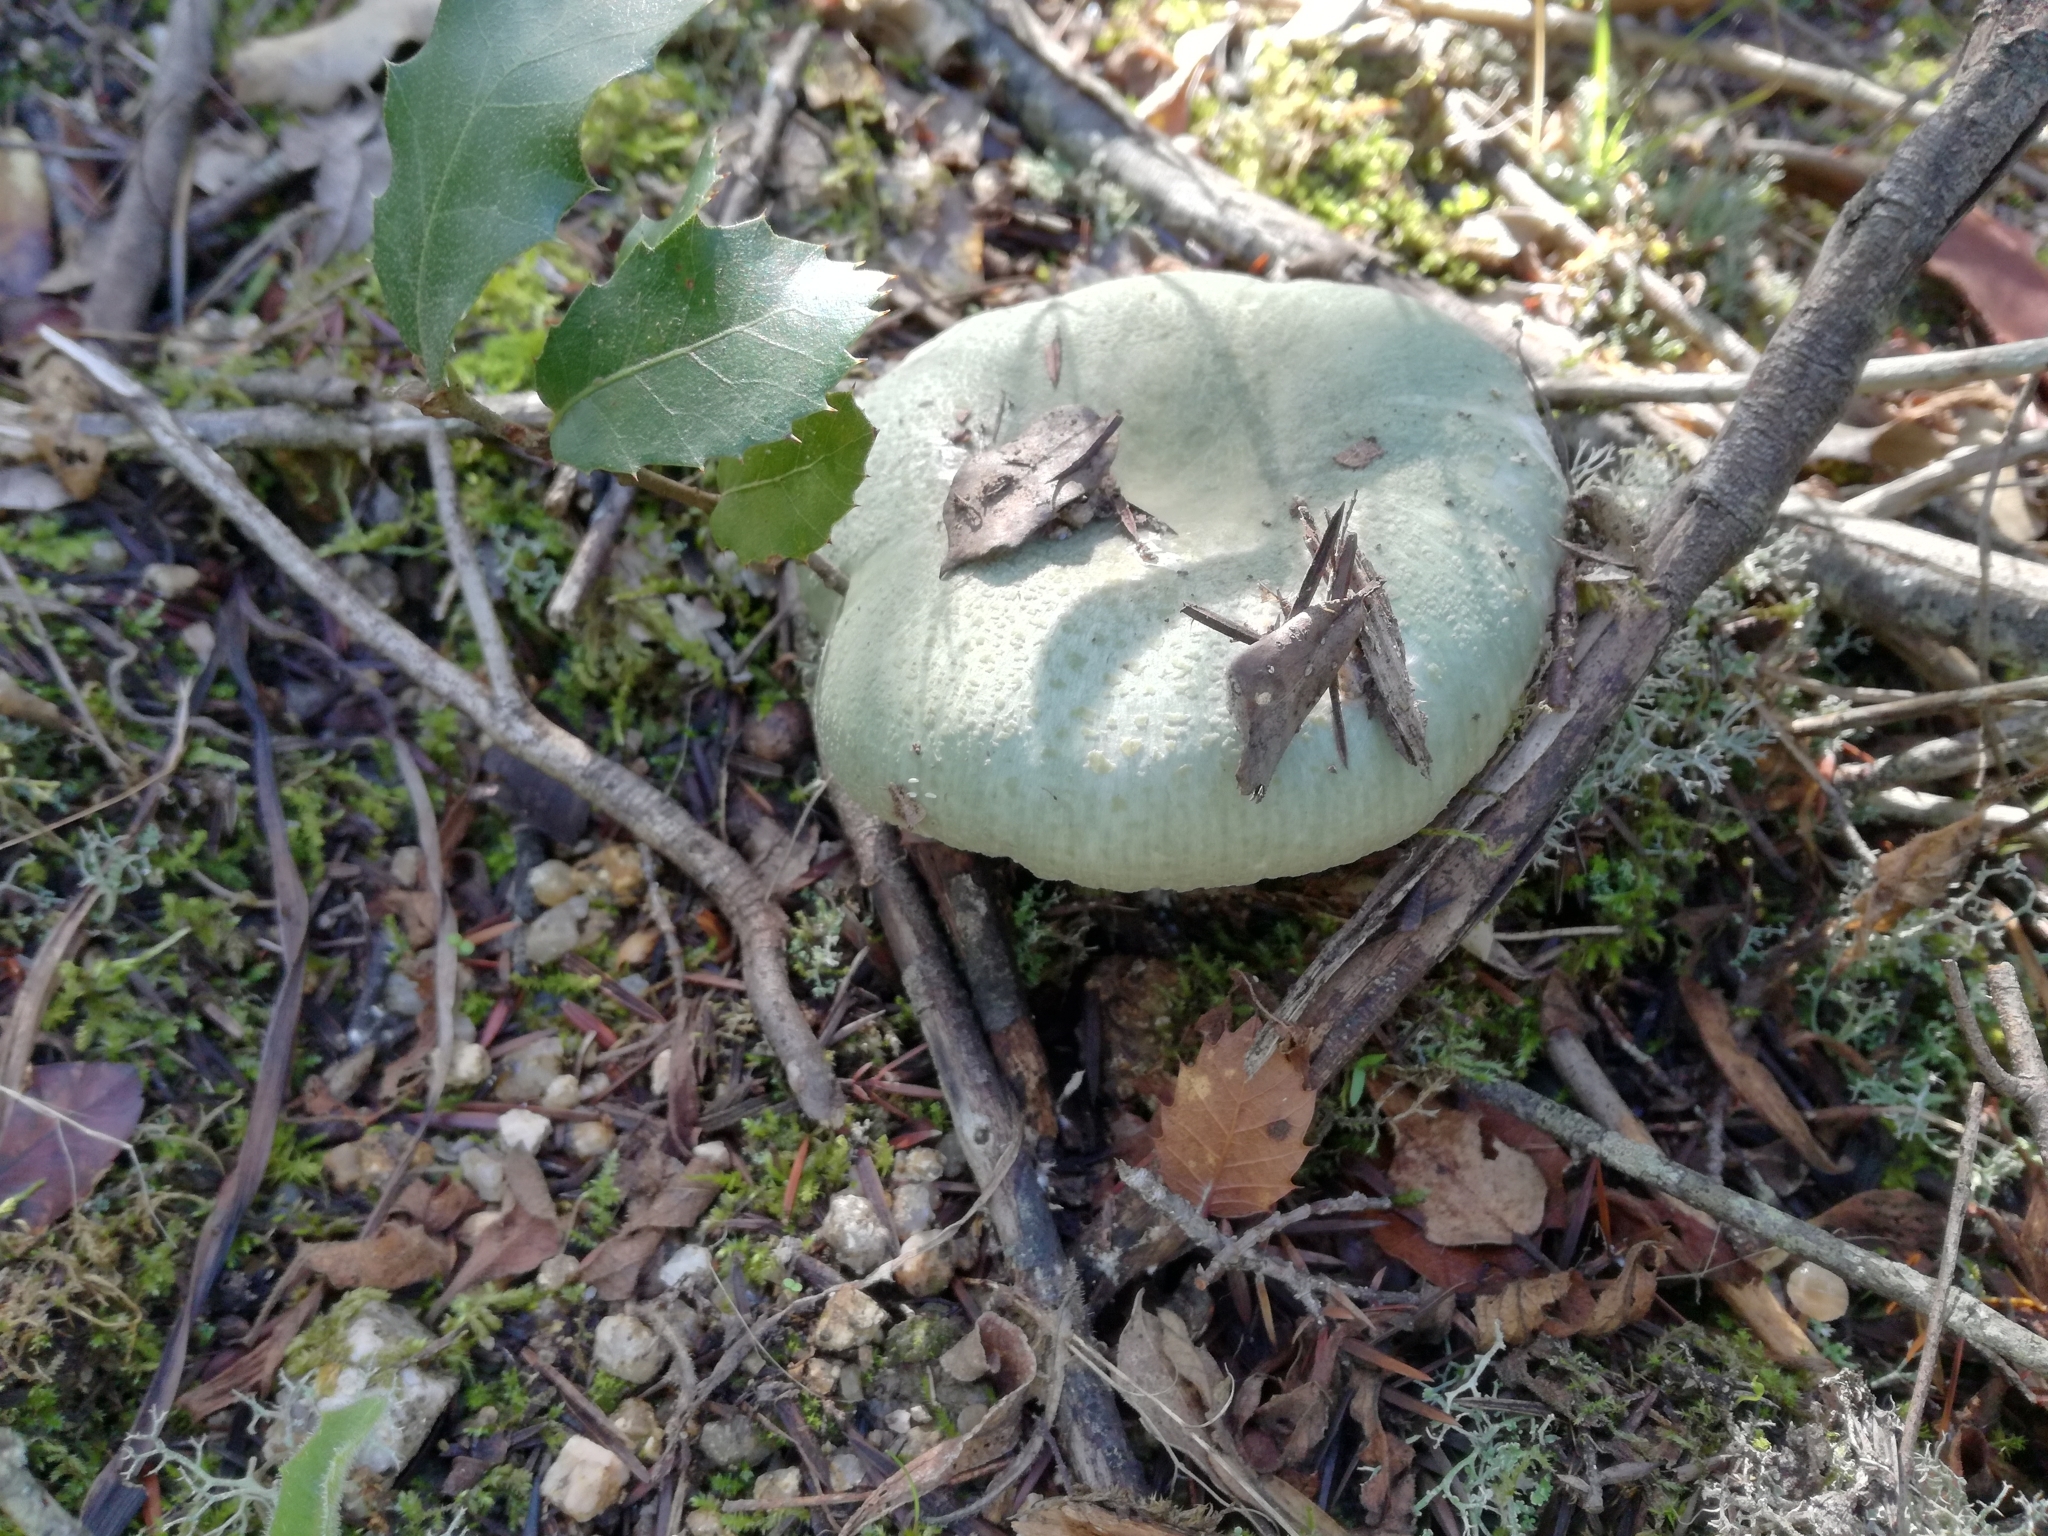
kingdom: Fungi
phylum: Basidiomycota
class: Agaricomycetes
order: Russulales
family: Russulaceae
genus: Russula
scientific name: Russula virescens
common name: Greencracked brittlegill
